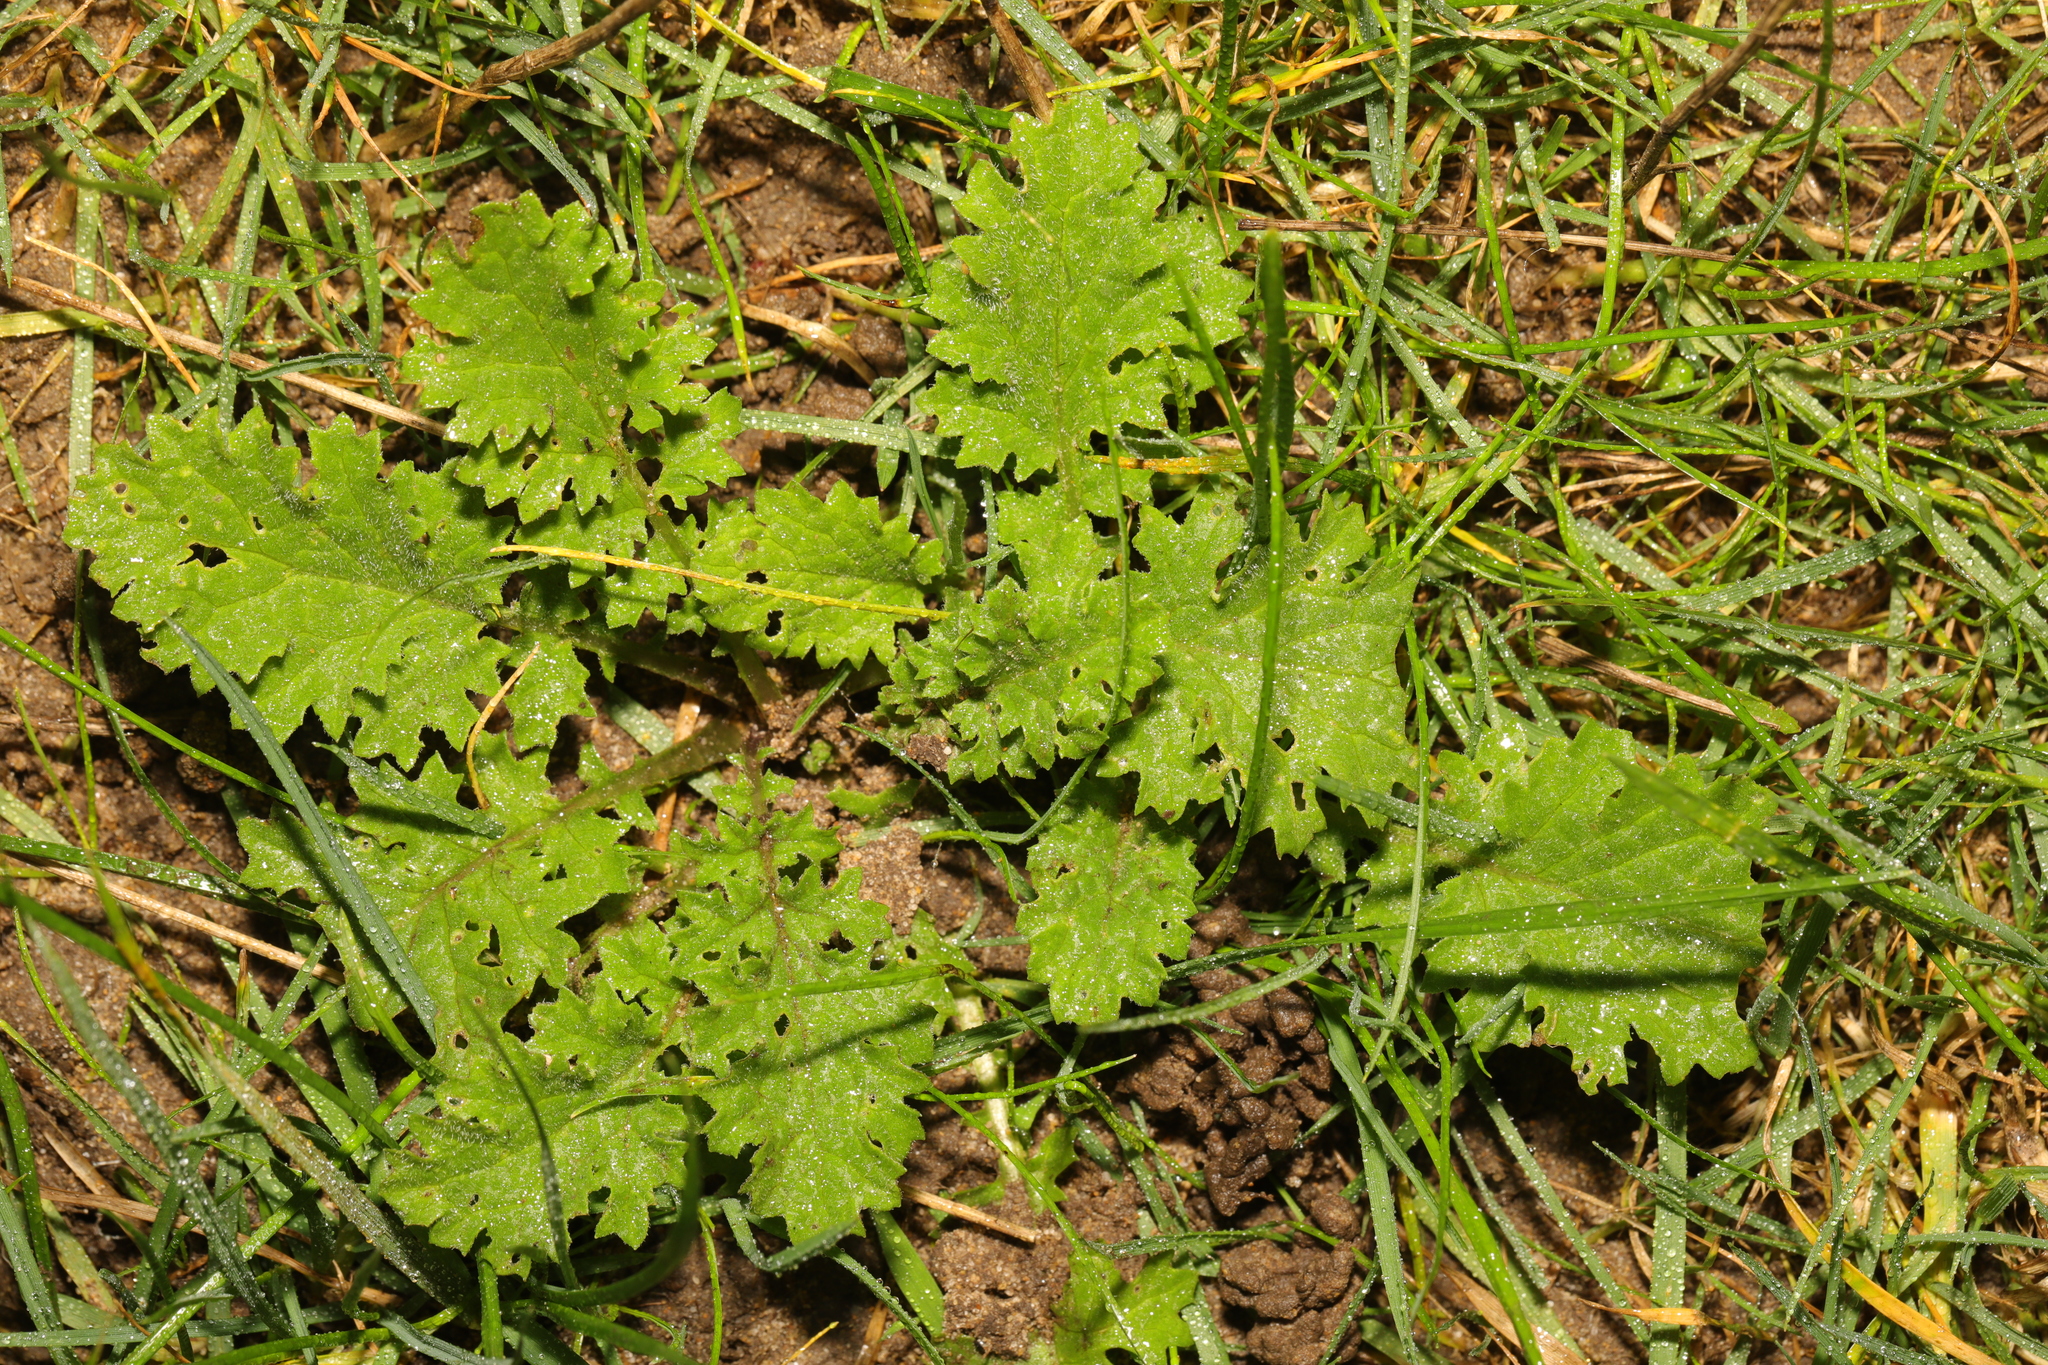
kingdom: Plantae
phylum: Tracheophyta
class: Magnoliopsida
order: Asterales
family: Asteraceae
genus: Jacobaea
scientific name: Jacobaea vulgaris
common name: Stinking willie
